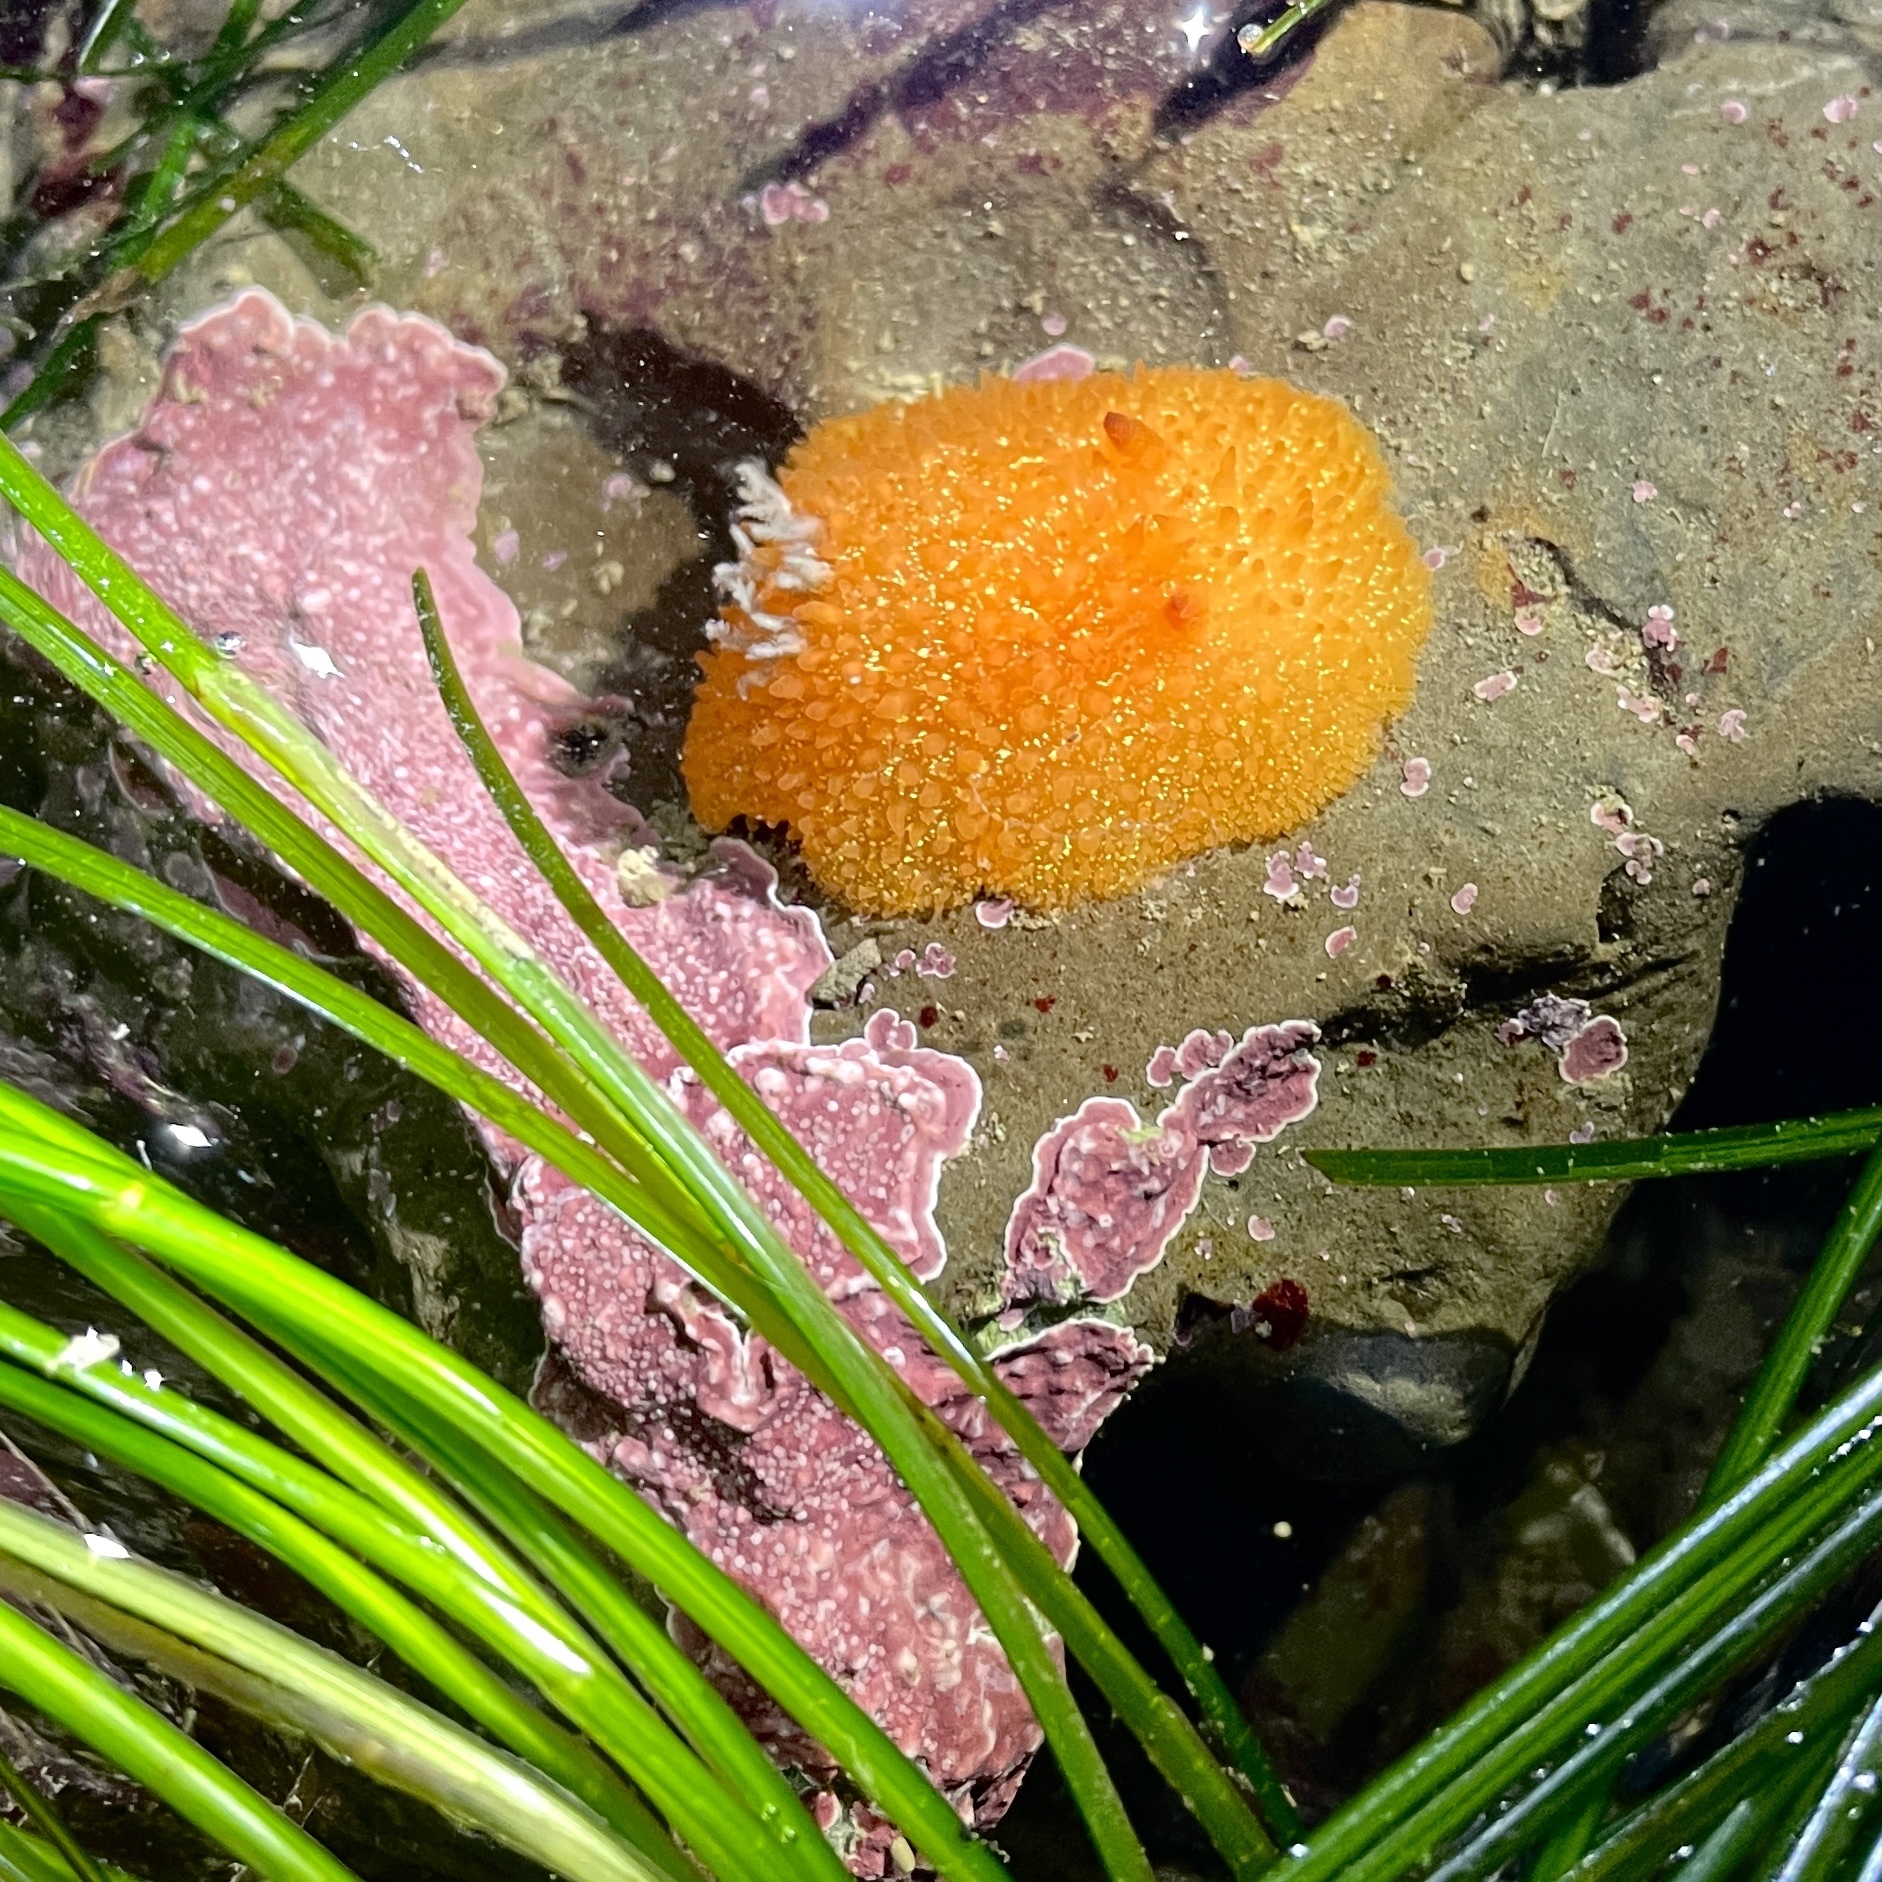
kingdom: Animalia
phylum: Mollusca
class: Gastropoda
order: Nudibranchia
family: Onchidorididae
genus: Acanthodoris
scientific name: Acanthodoris lutea
